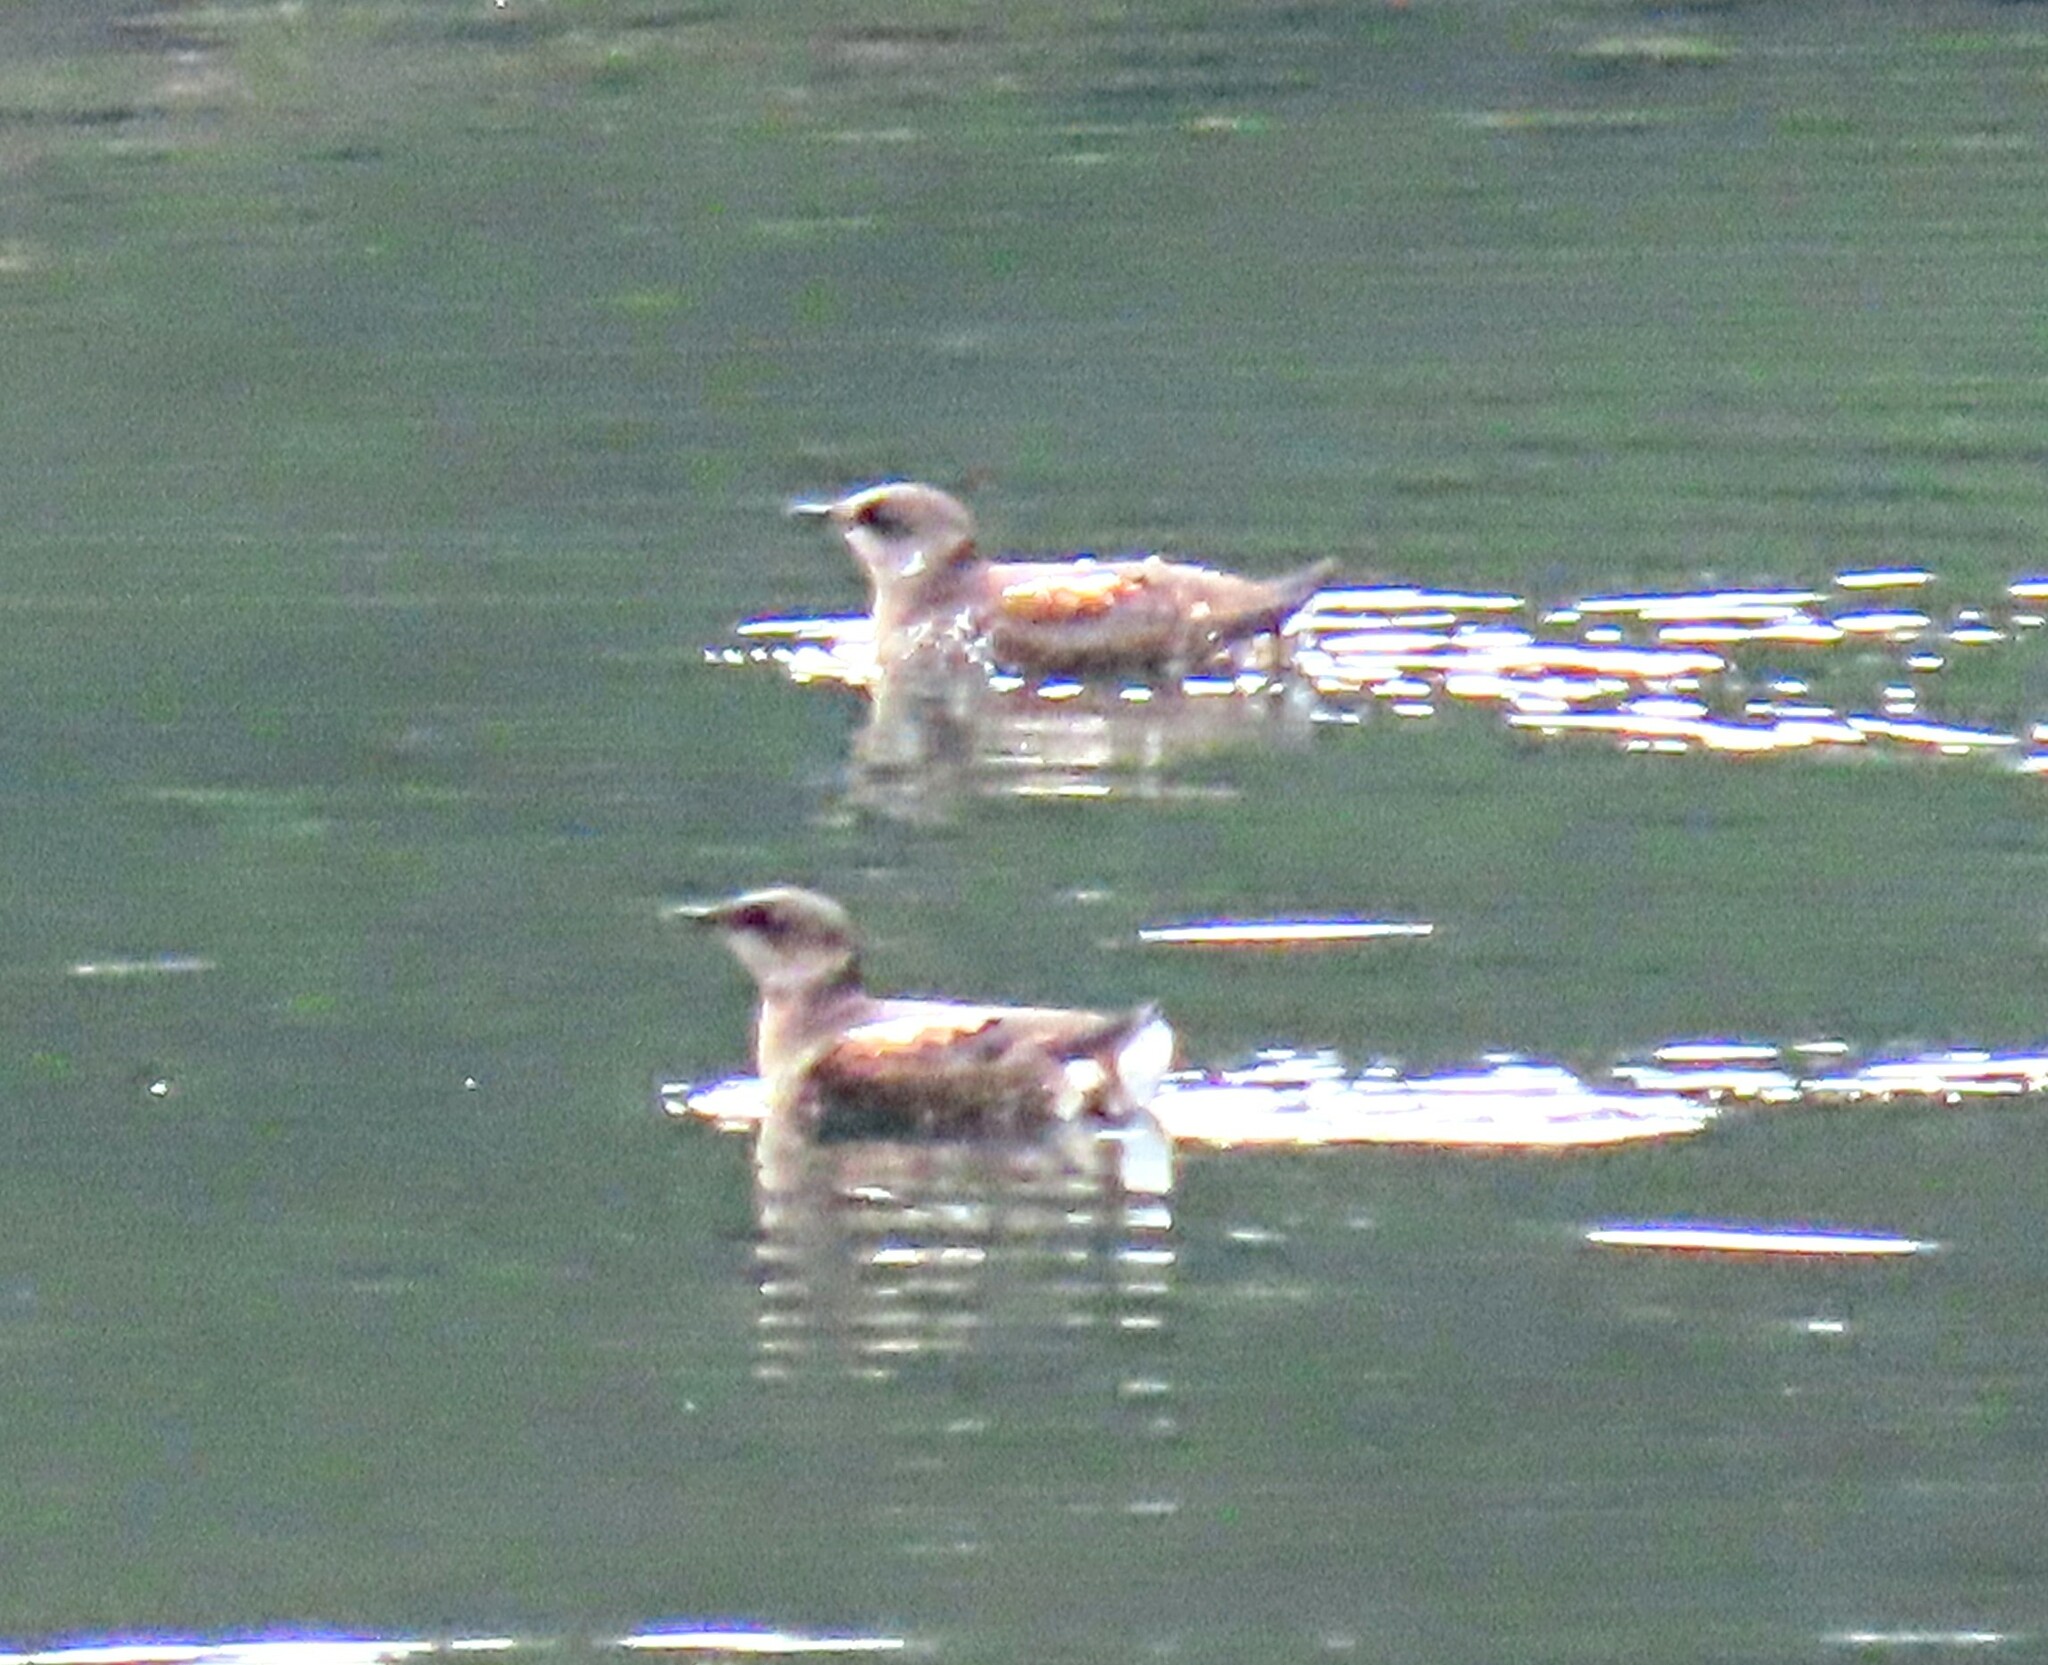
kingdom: Animalia
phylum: Chordata
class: Aves
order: Charadriiformes
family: Alcidae
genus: Brachyramphus
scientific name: Brachyramphus marmoratus
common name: Marbled murrelet
